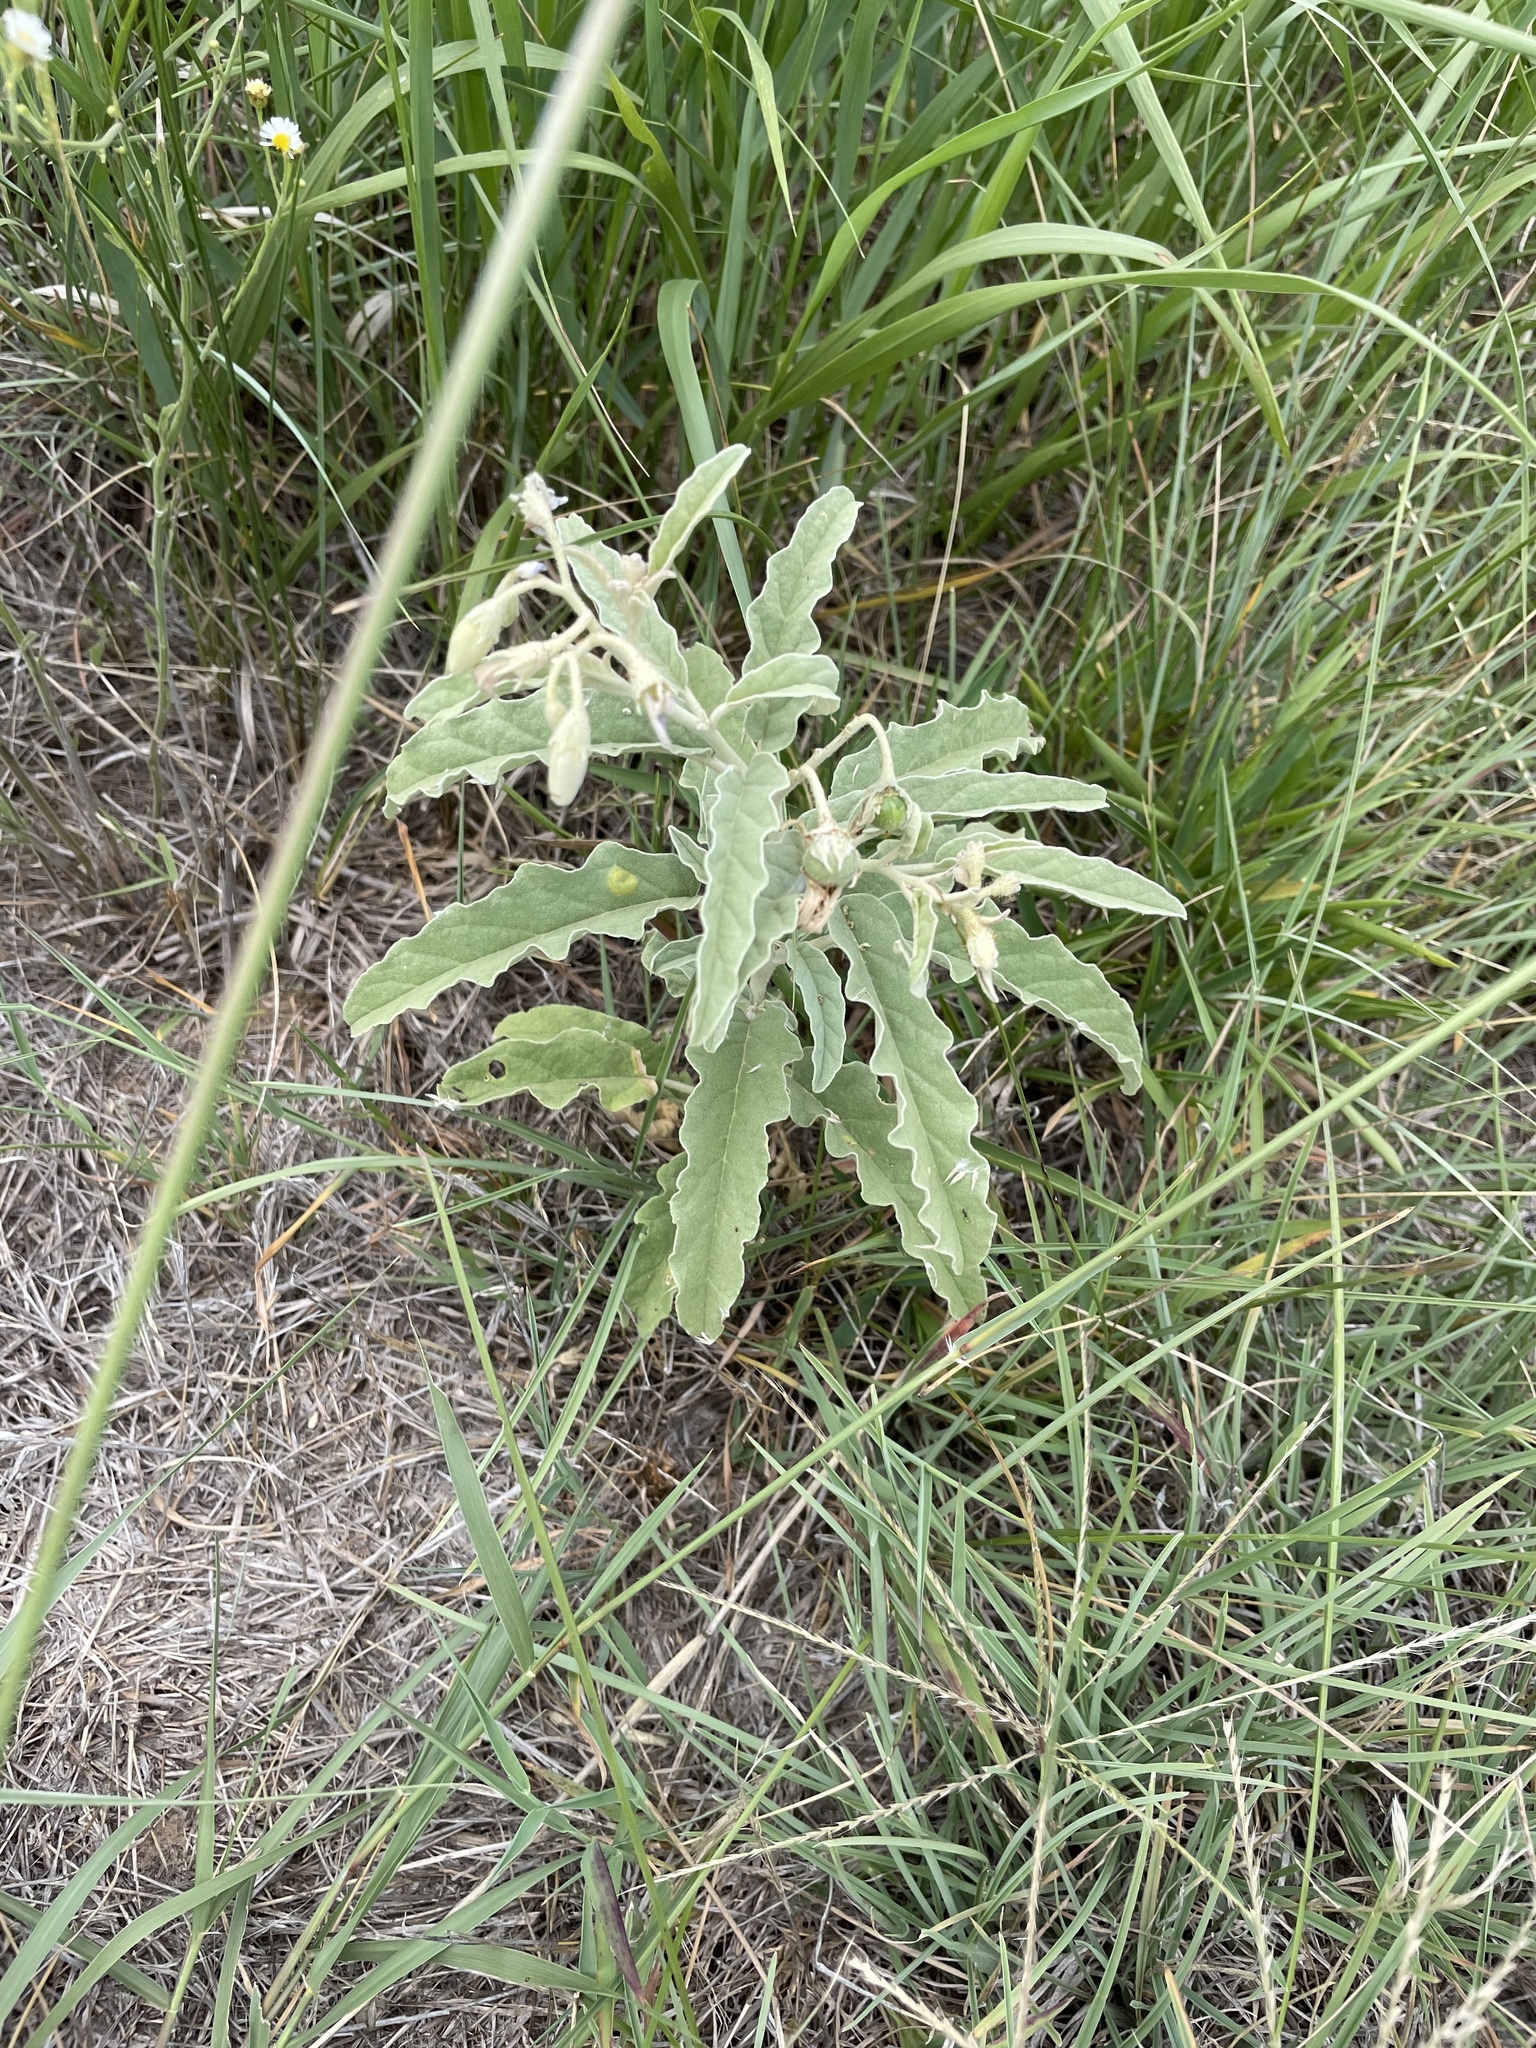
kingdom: Plantae
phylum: Tracheophyta
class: Magnoliopsida
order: Solanales
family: Solanaceae
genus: Solanum
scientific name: Solanum elaeagnifolium
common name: Silverleaf nightshade
